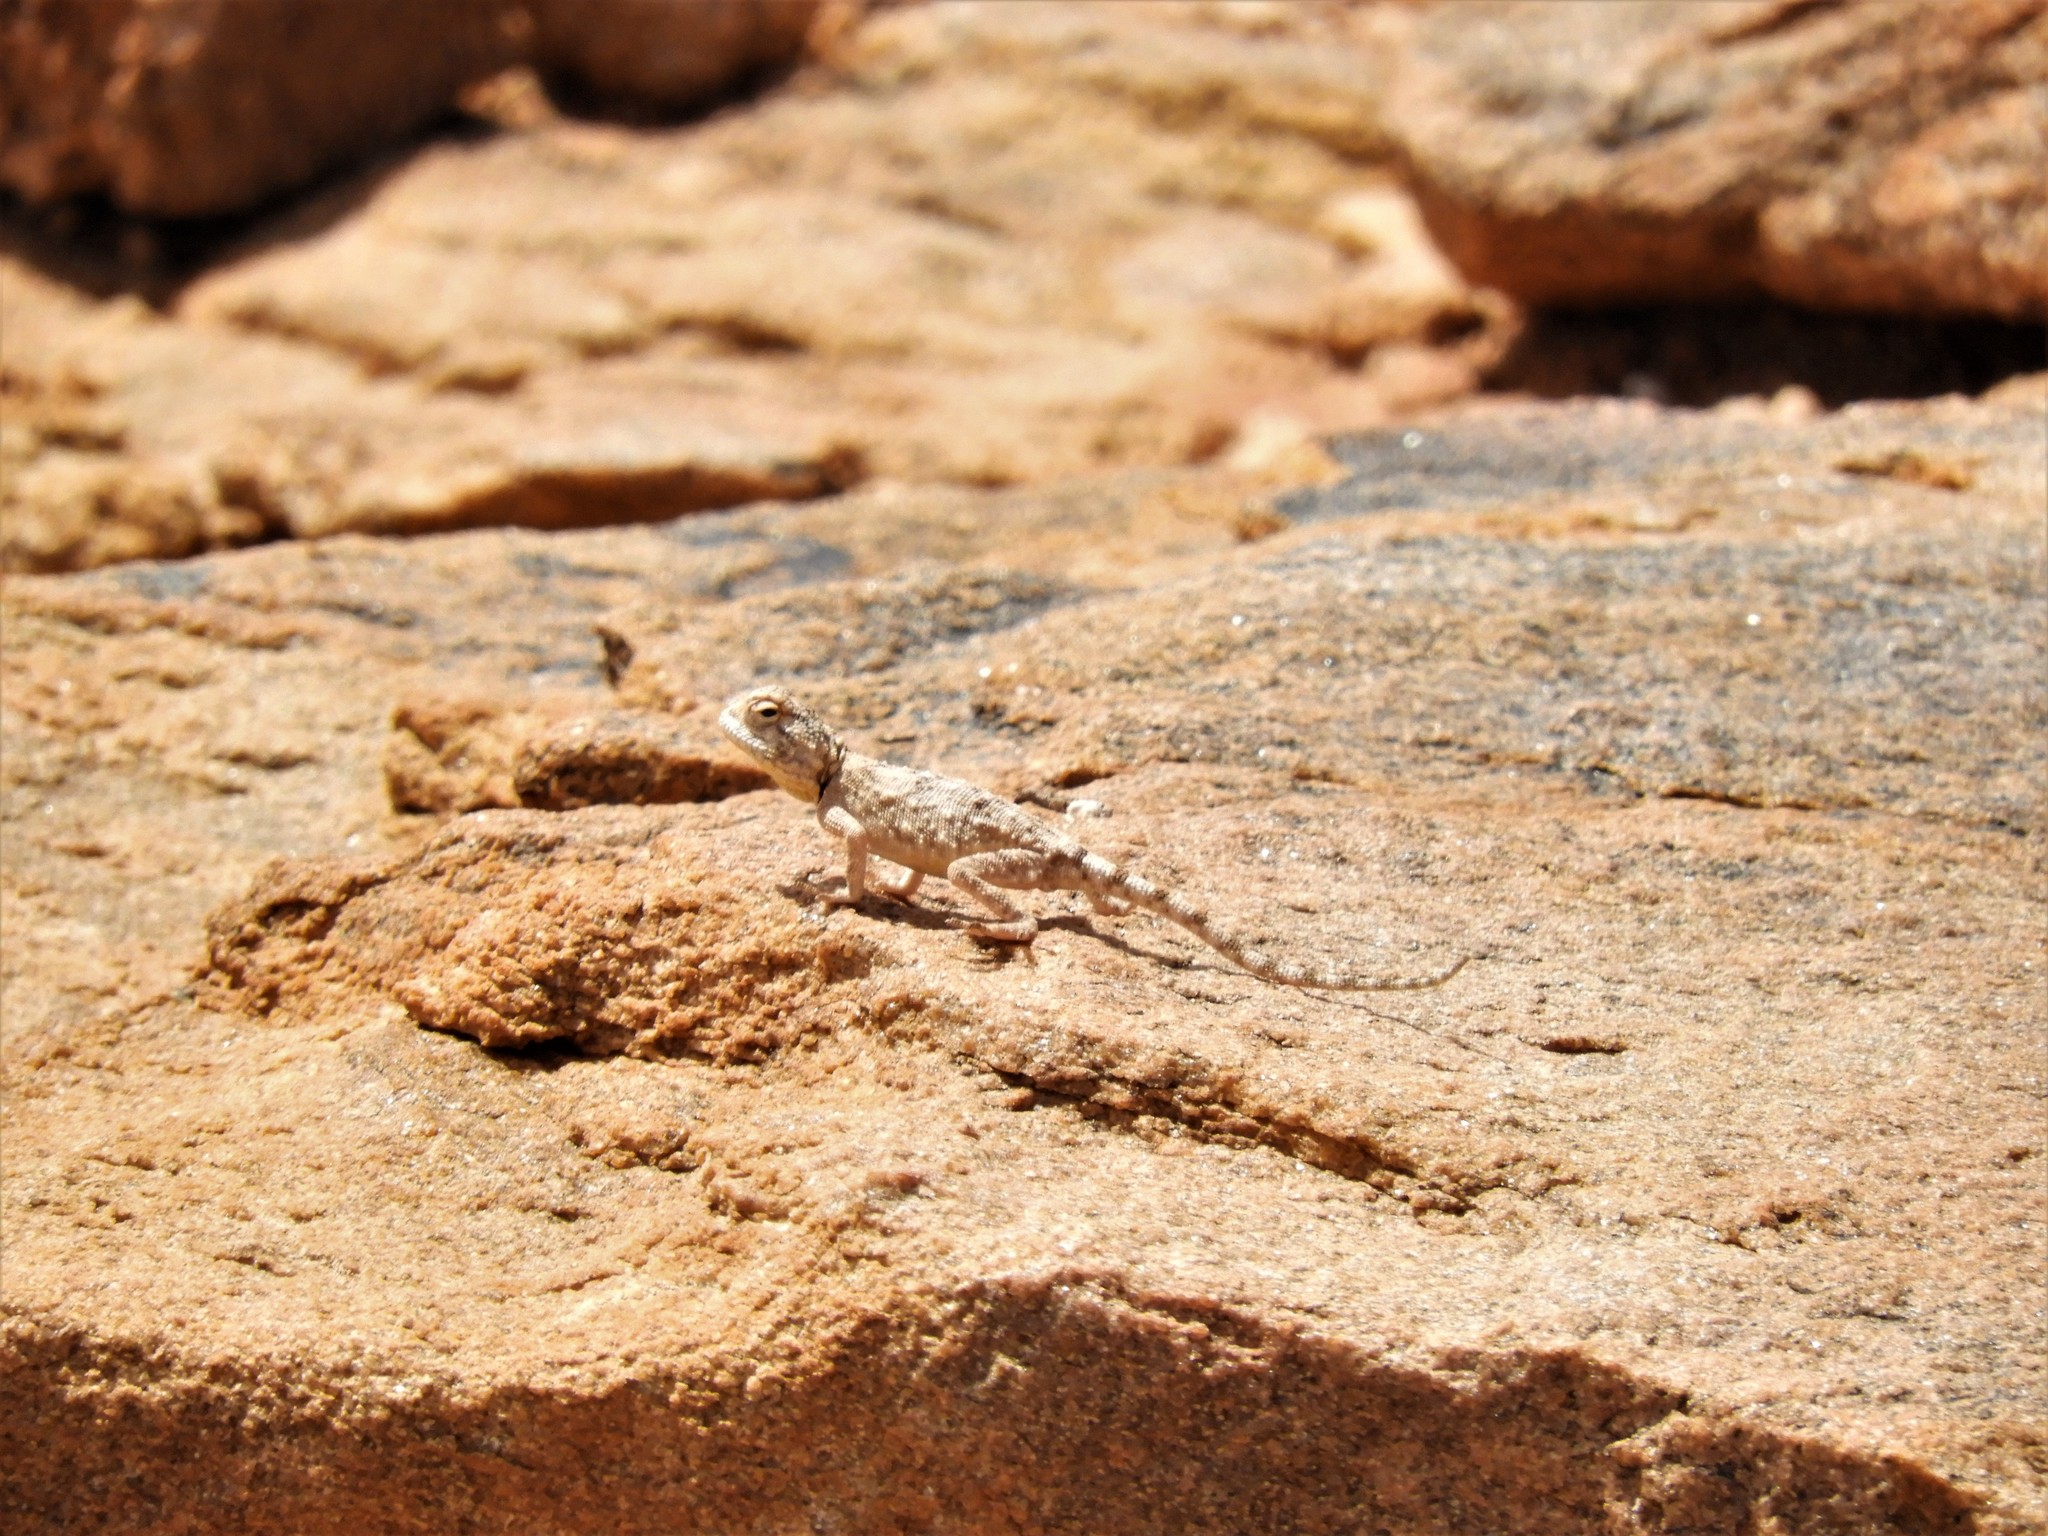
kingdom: Animalia
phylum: Chordata
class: Squamata
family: Agamidae
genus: Agama
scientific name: Agama anchietae
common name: Anchieta's agama
